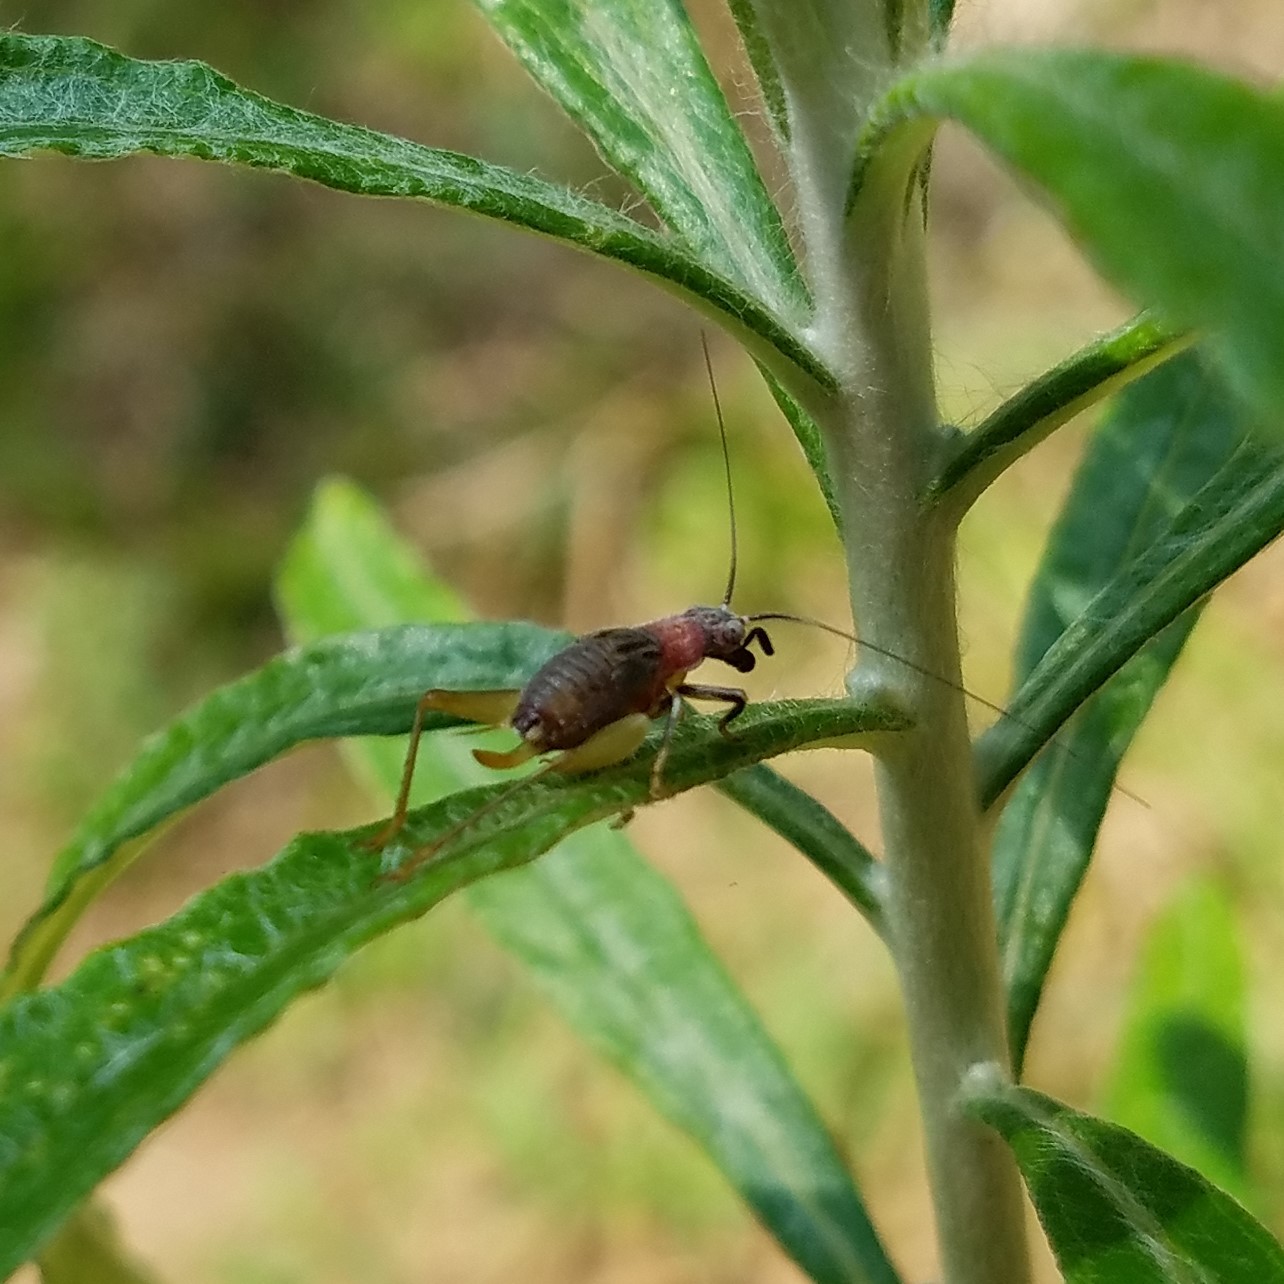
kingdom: Animalia
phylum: Arthropoda
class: Insecta
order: Orthoptera
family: Trigonidiidae
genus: Phyllopalpus
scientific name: Phyllopalpus pulchellus
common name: Handsome trig
